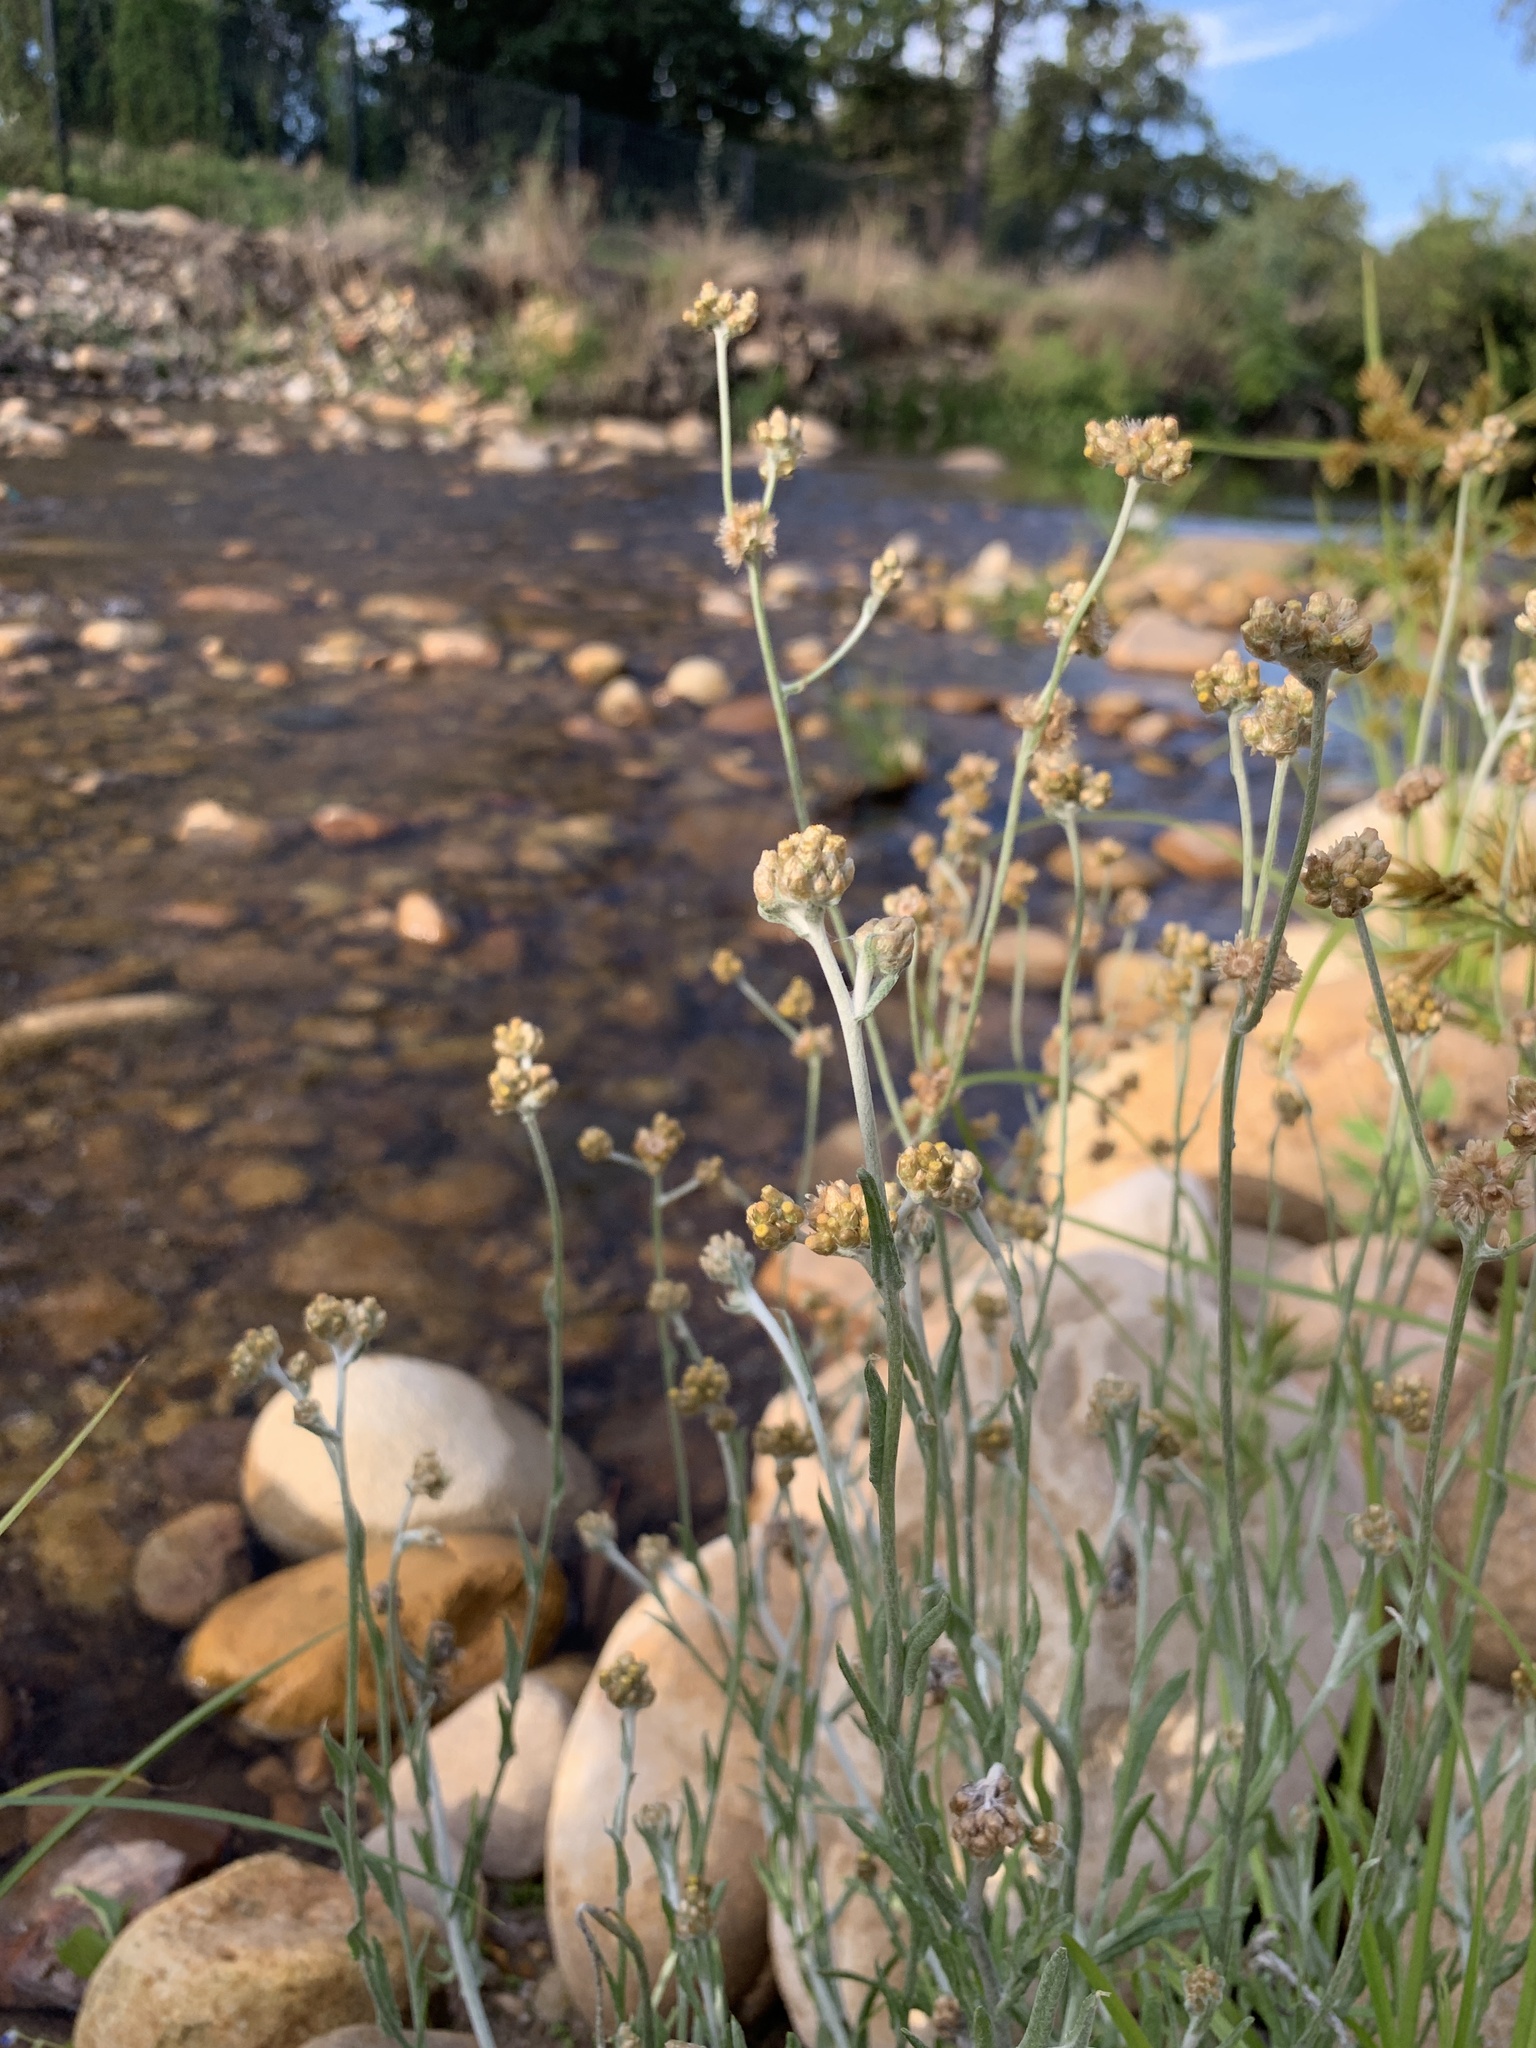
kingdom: Plantae
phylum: Tracheophyta
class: Magnoliopsida
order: Asterales
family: Asteraceae
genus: Helichrysum
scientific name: Helichrysum luteoalbum
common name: Daisy
